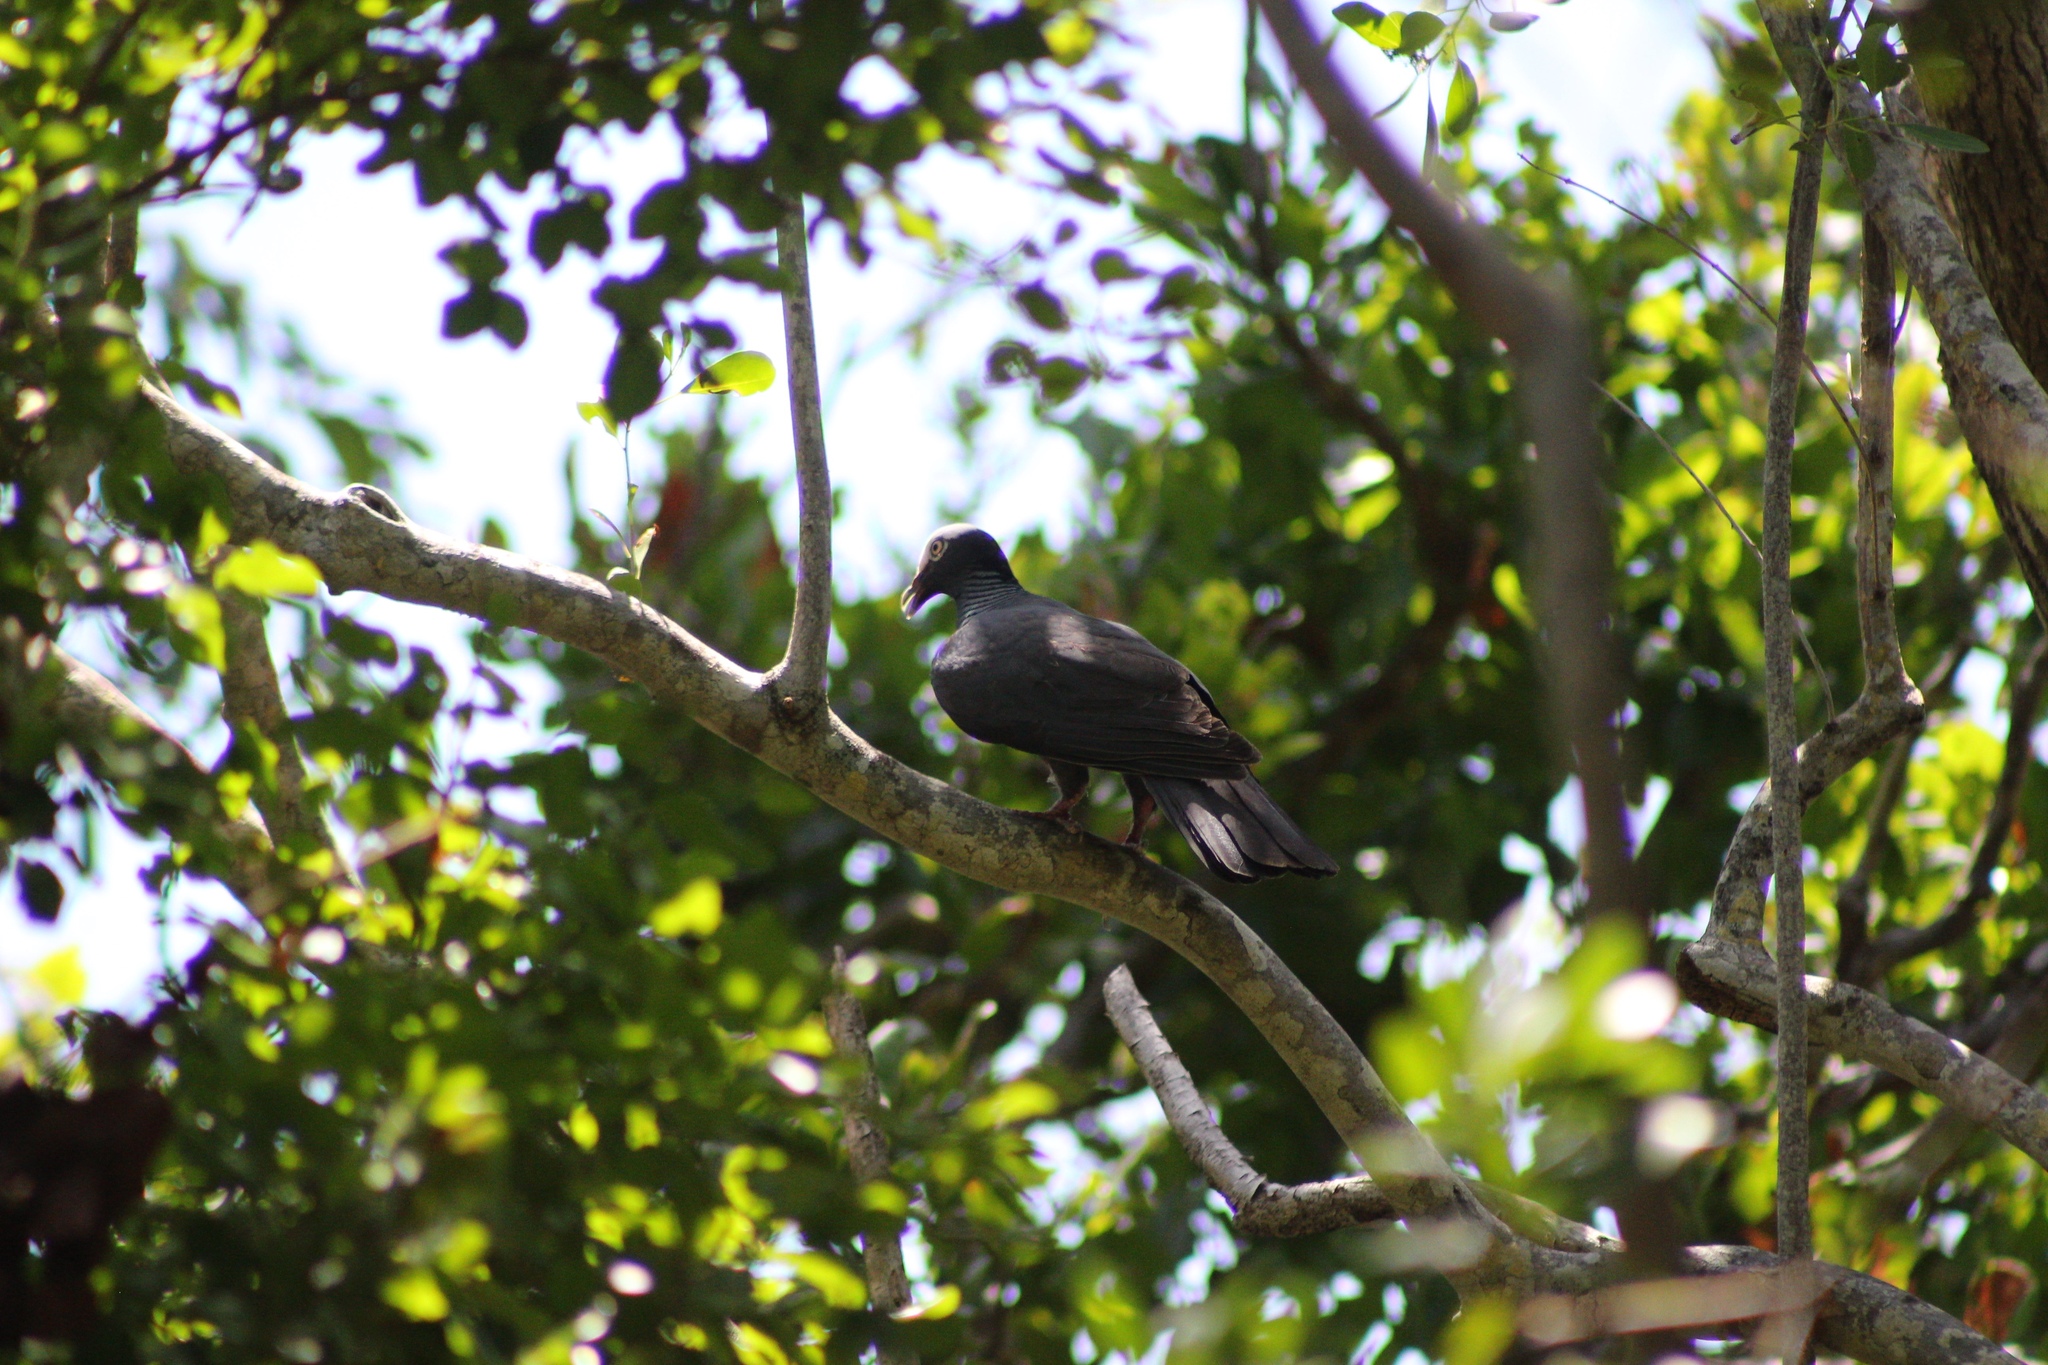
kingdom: Animalia
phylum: Chordata
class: Aves
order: Columbiformes
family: Columbidae
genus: Patagioenas
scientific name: Patagioenas leucocephala
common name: White-crowned pigeon
